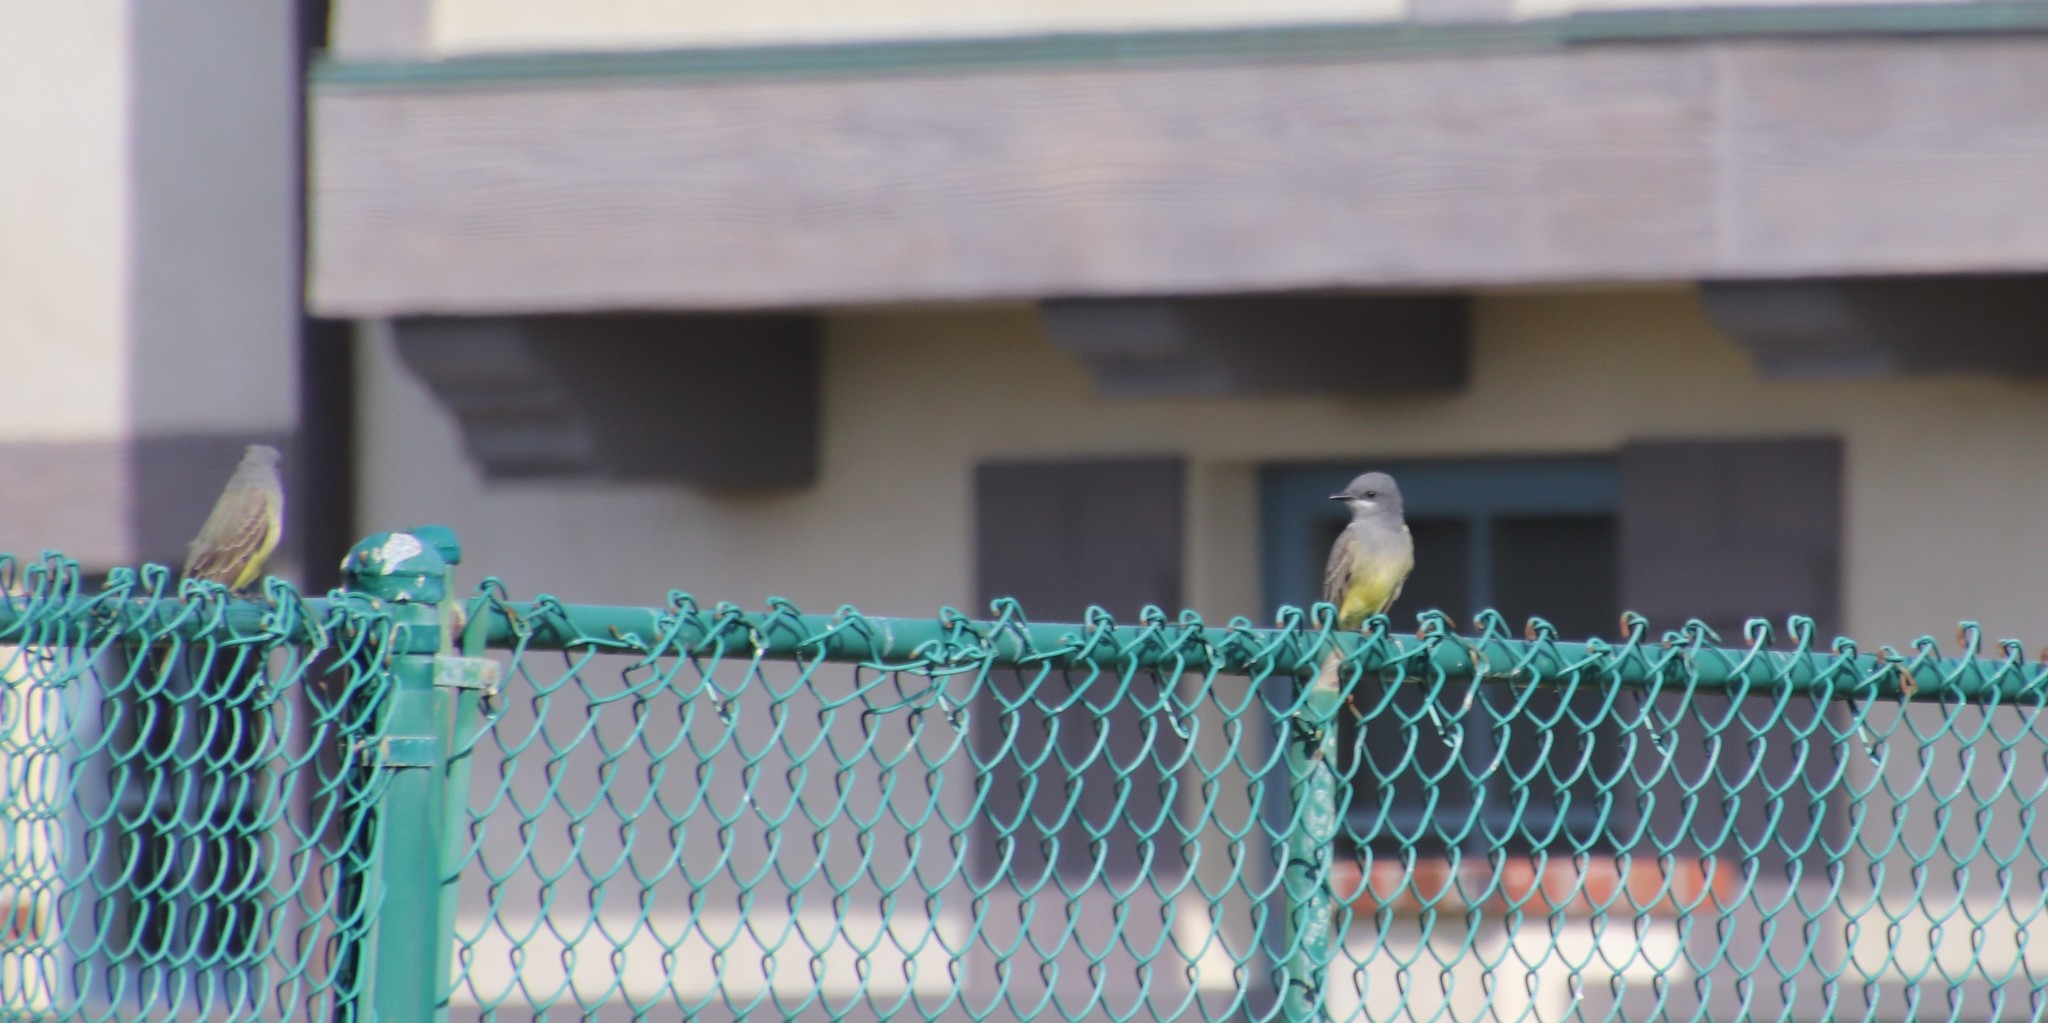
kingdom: Animalia
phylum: Chordata
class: Aves
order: Passeriformes
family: Tyrannidae
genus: Tyrannus
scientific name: Tyrannus vociferans
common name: Cassin's kingbird
